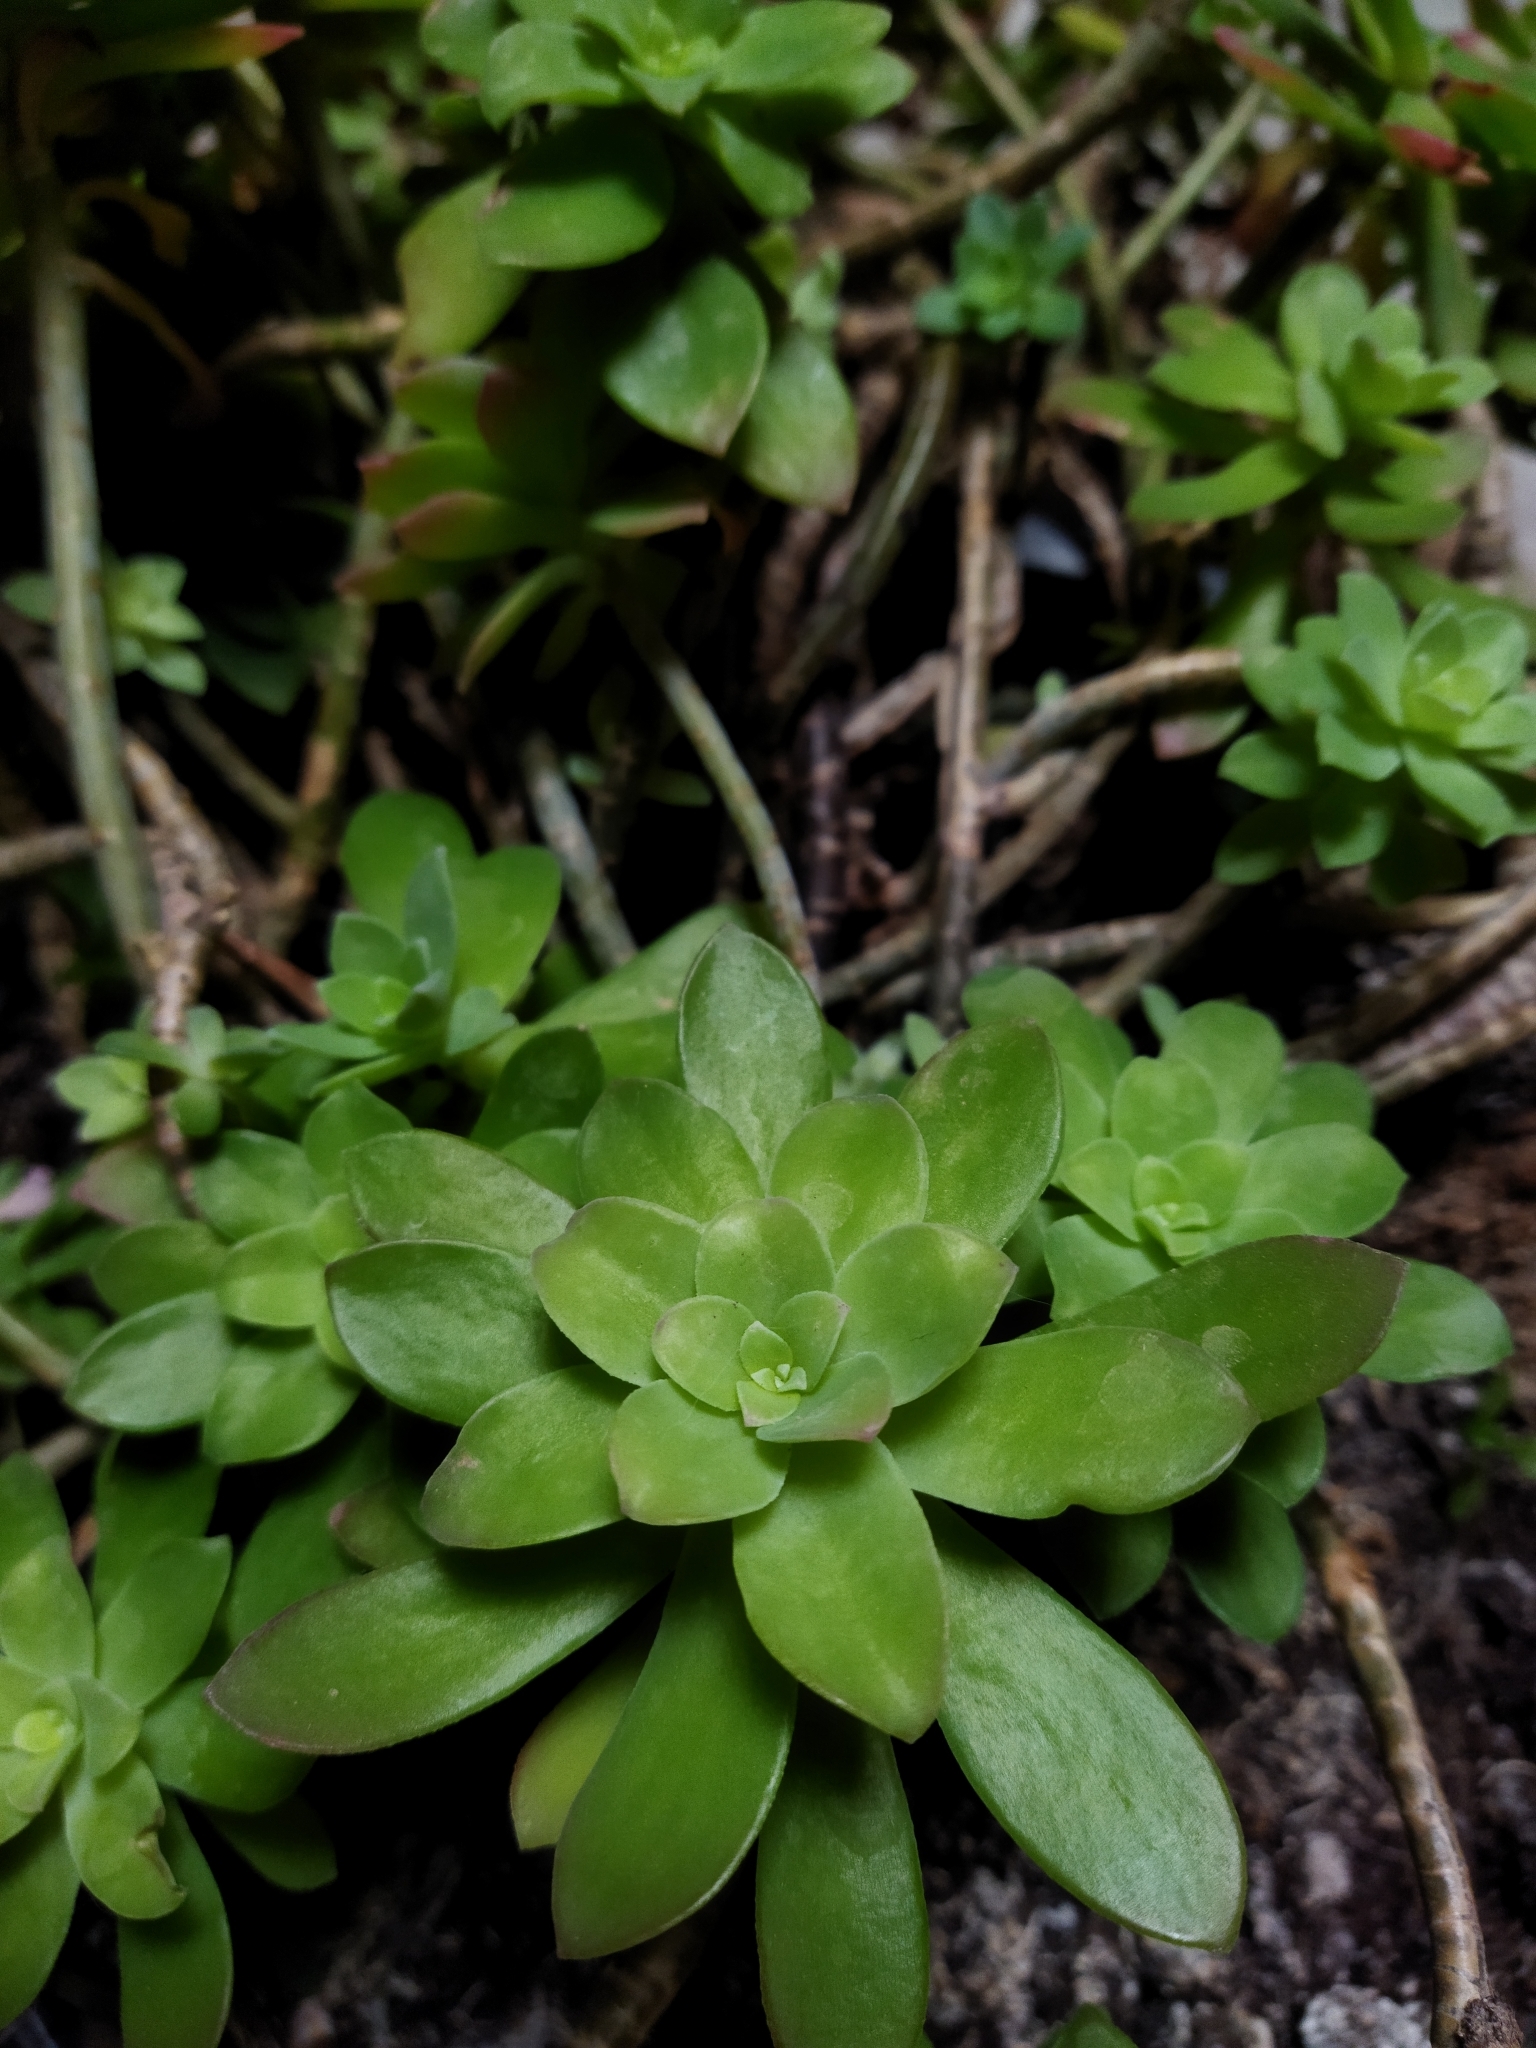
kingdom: Plantae
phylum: Tracheophyta
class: Magnoliopsida
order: Saxifragales
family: Crassulaceae
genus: Sedum
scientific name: Sedum palmeri
